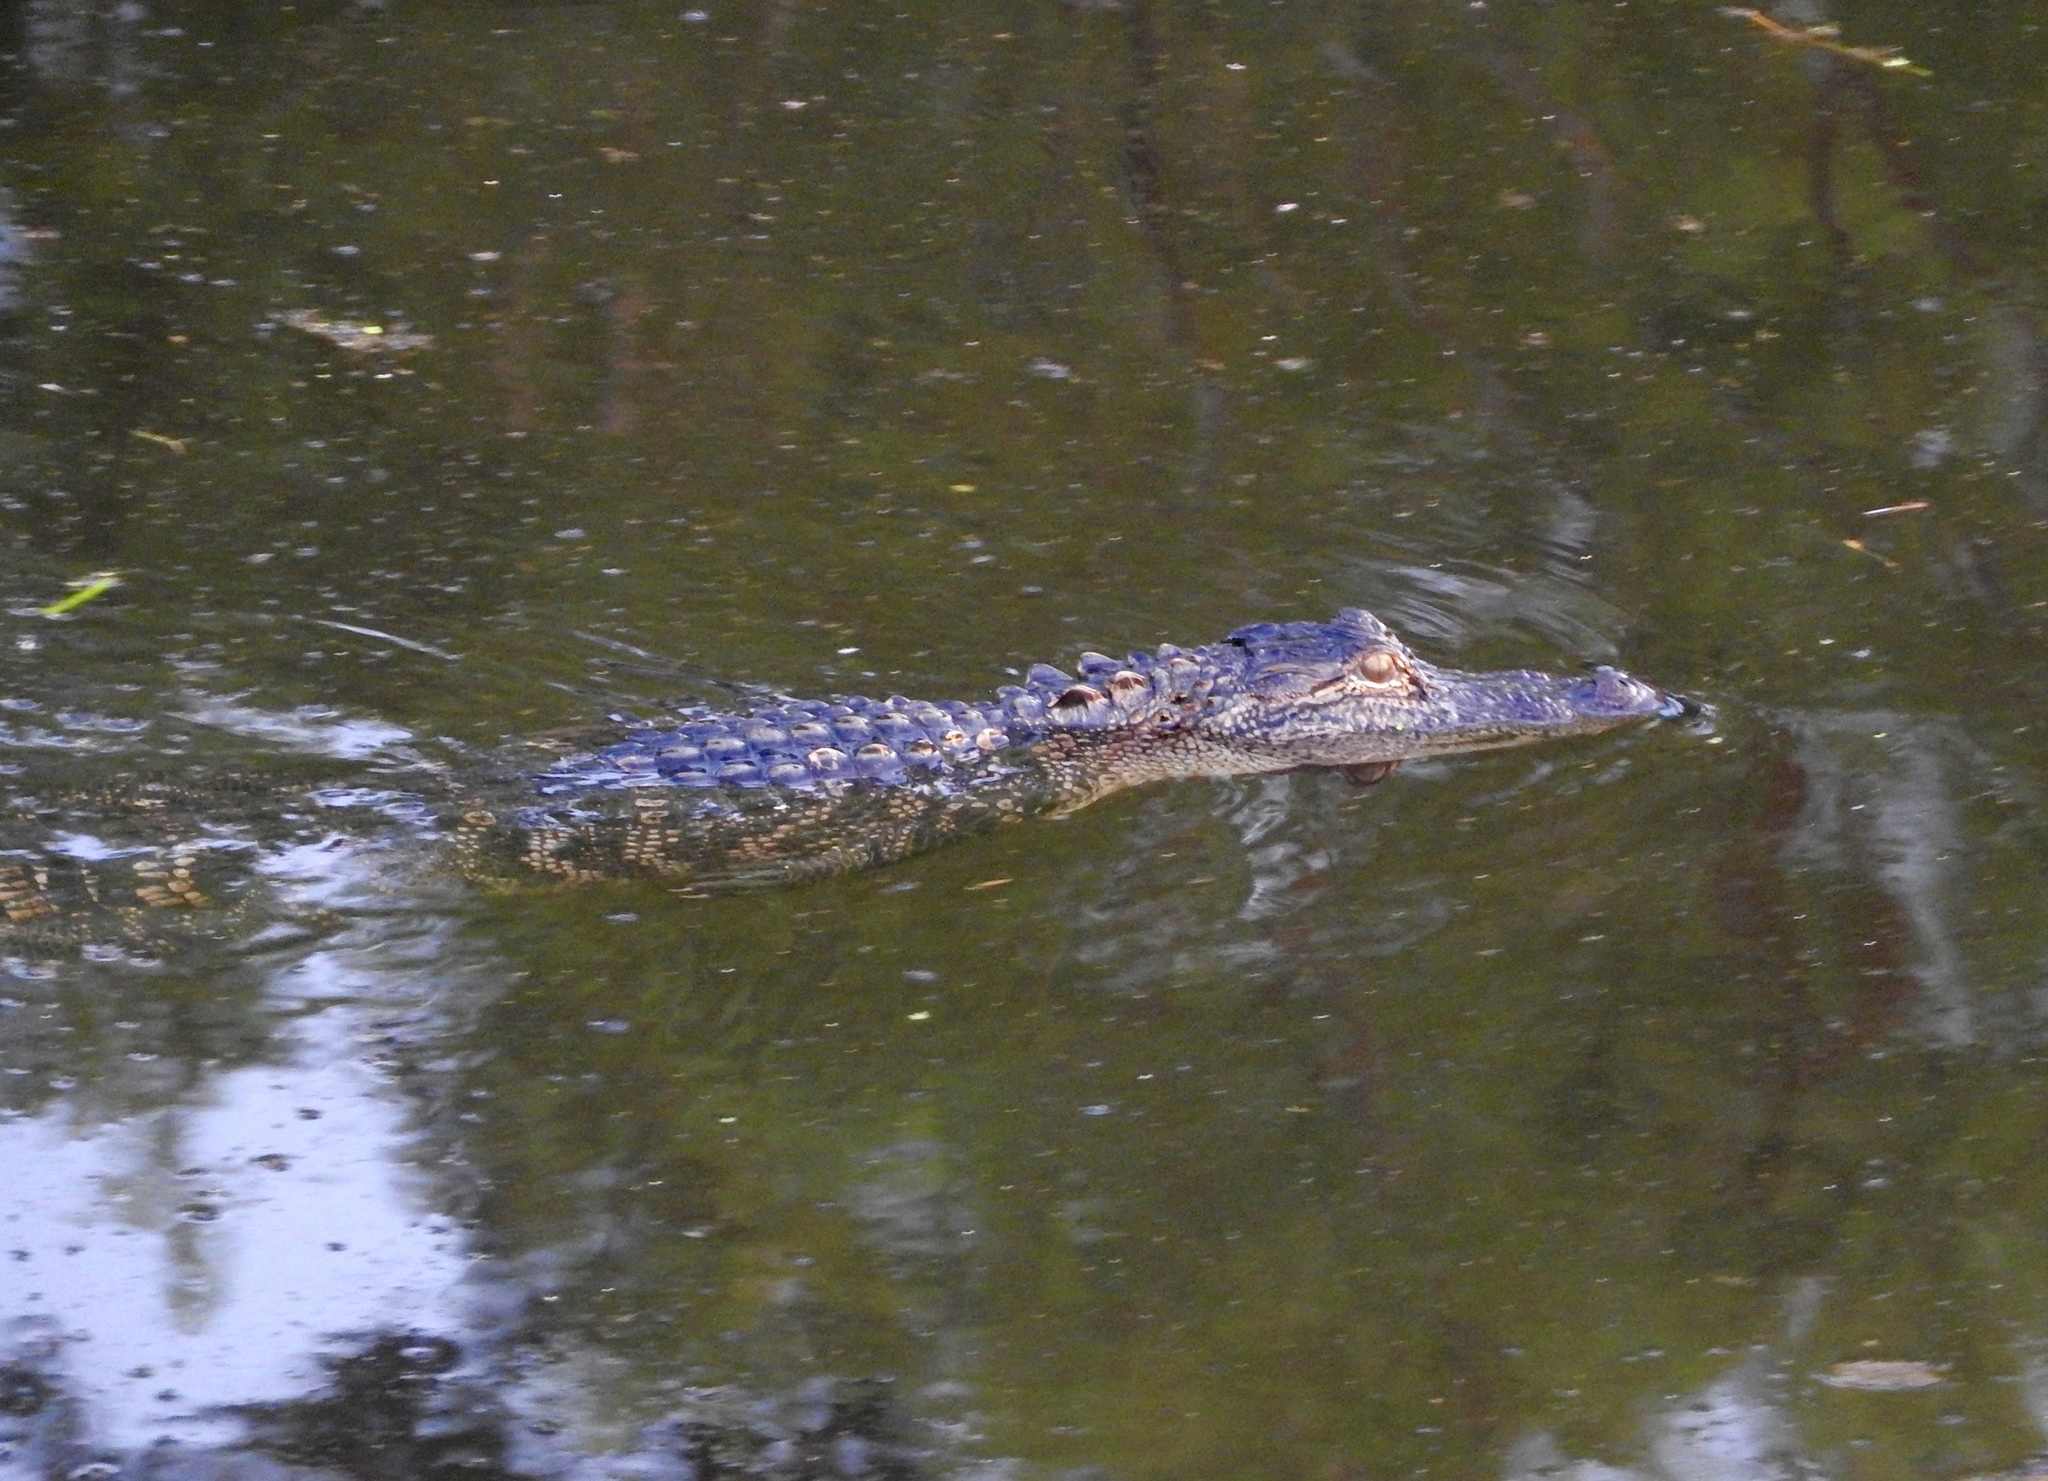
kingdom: Animalia
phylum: Chordata
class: Crocodylia
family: Alligatoridae
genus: Alligator
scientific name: Alligator mississippiensis
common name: American alligator
